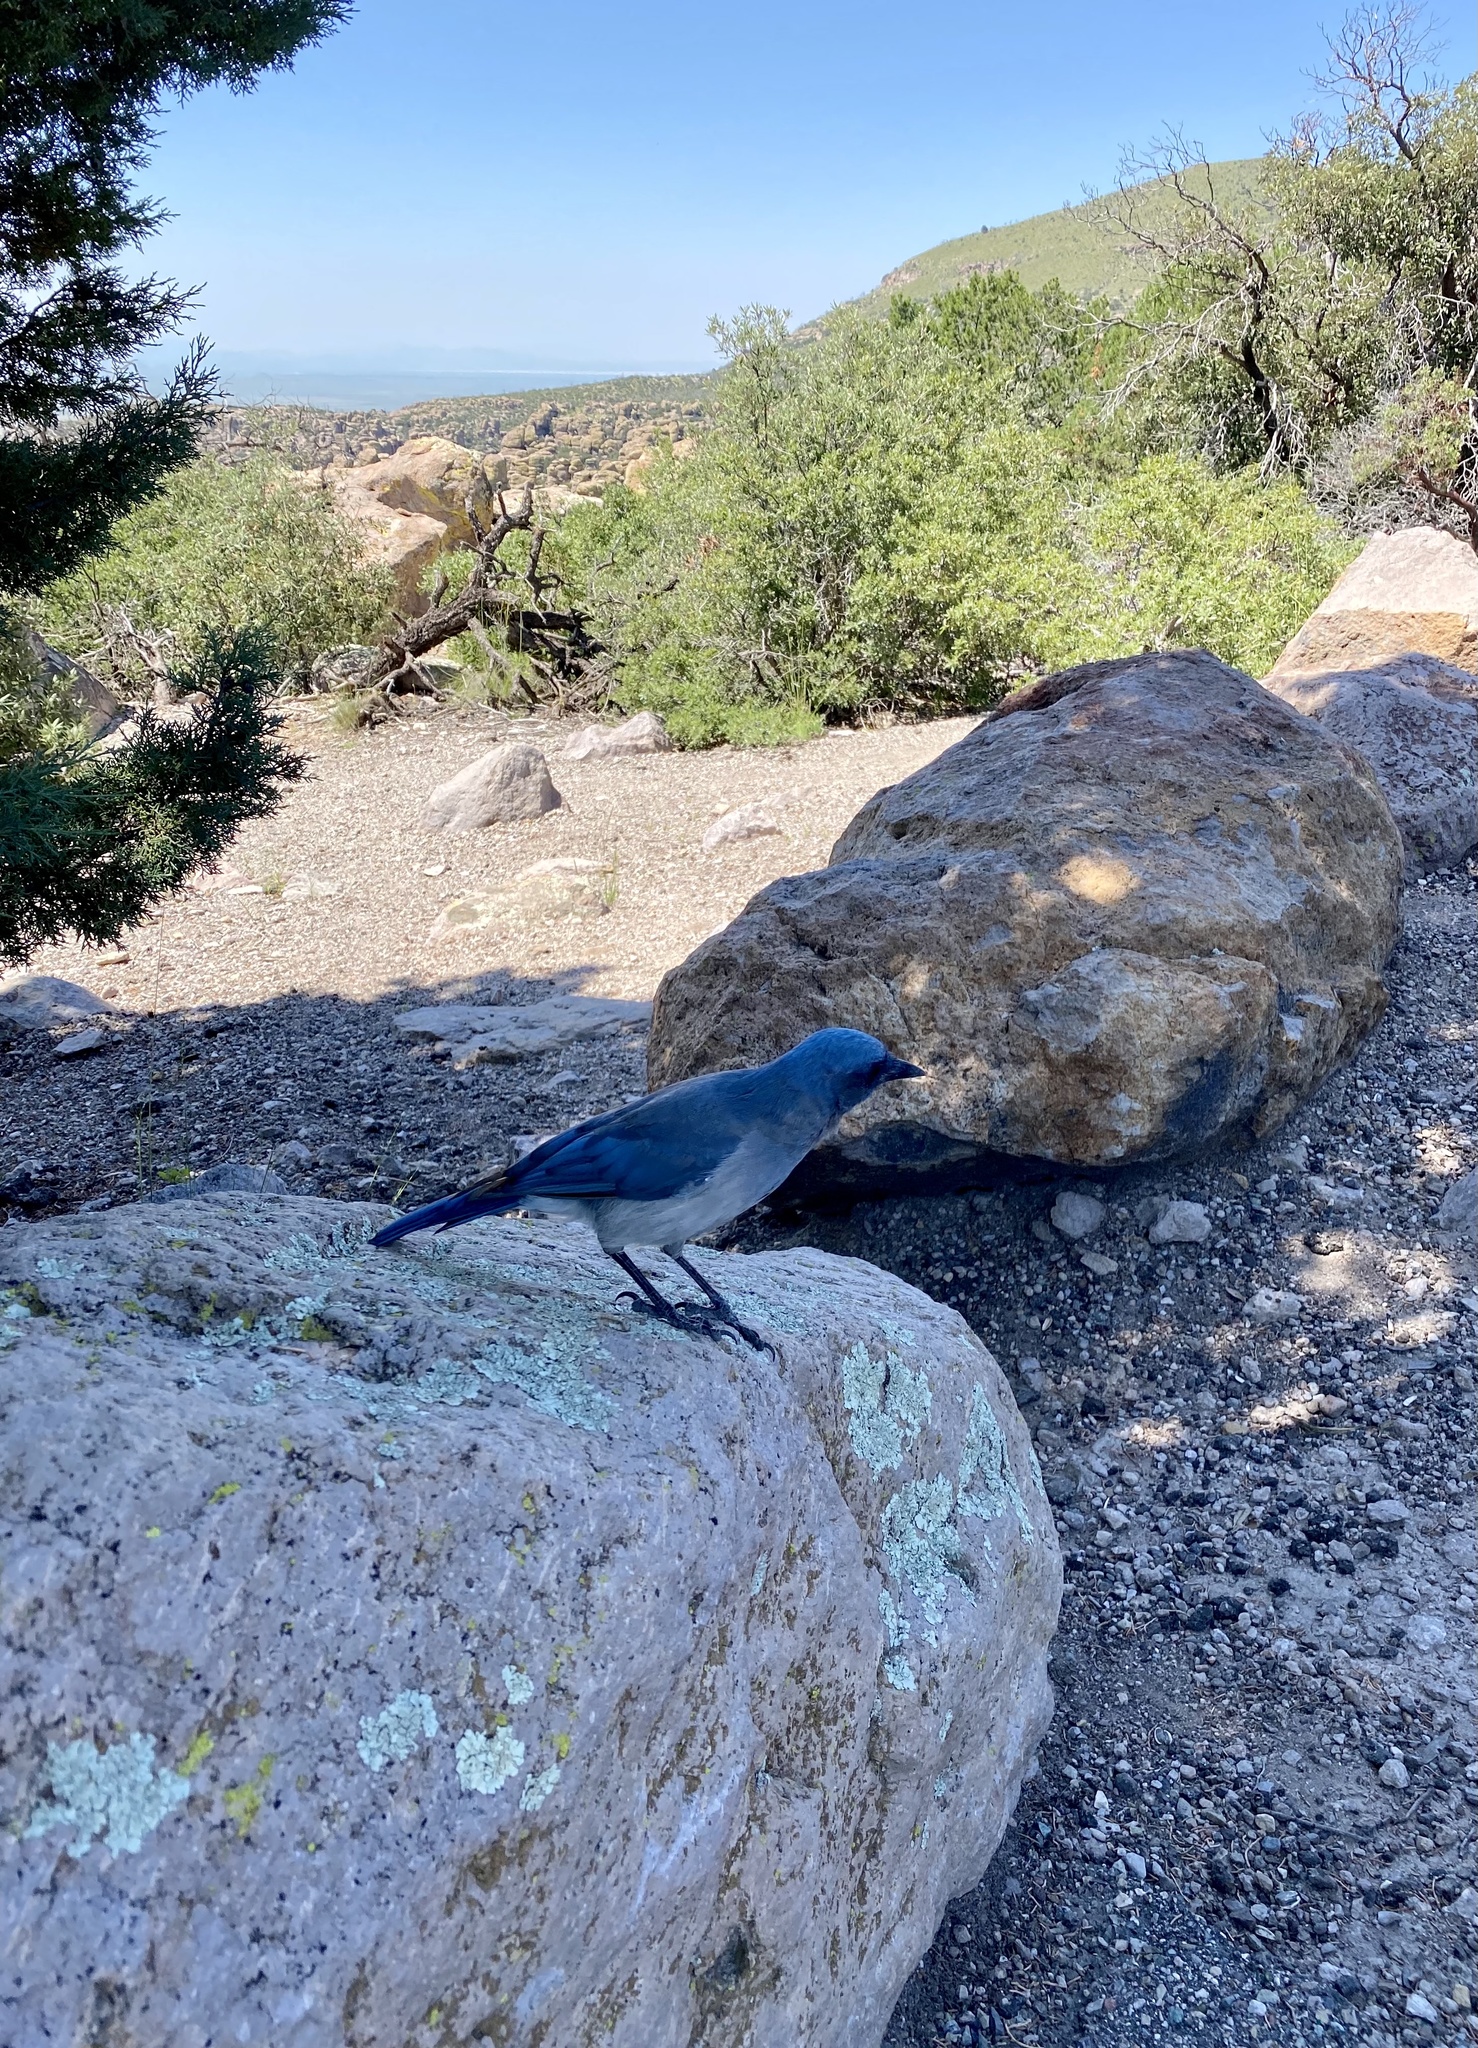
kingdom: Animalia
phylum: Chordata
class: Aves
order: Passeriformes
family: Corvidae
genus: Aphelocoma
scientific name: Aphelocoma wollweberi
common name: Mexican jay
